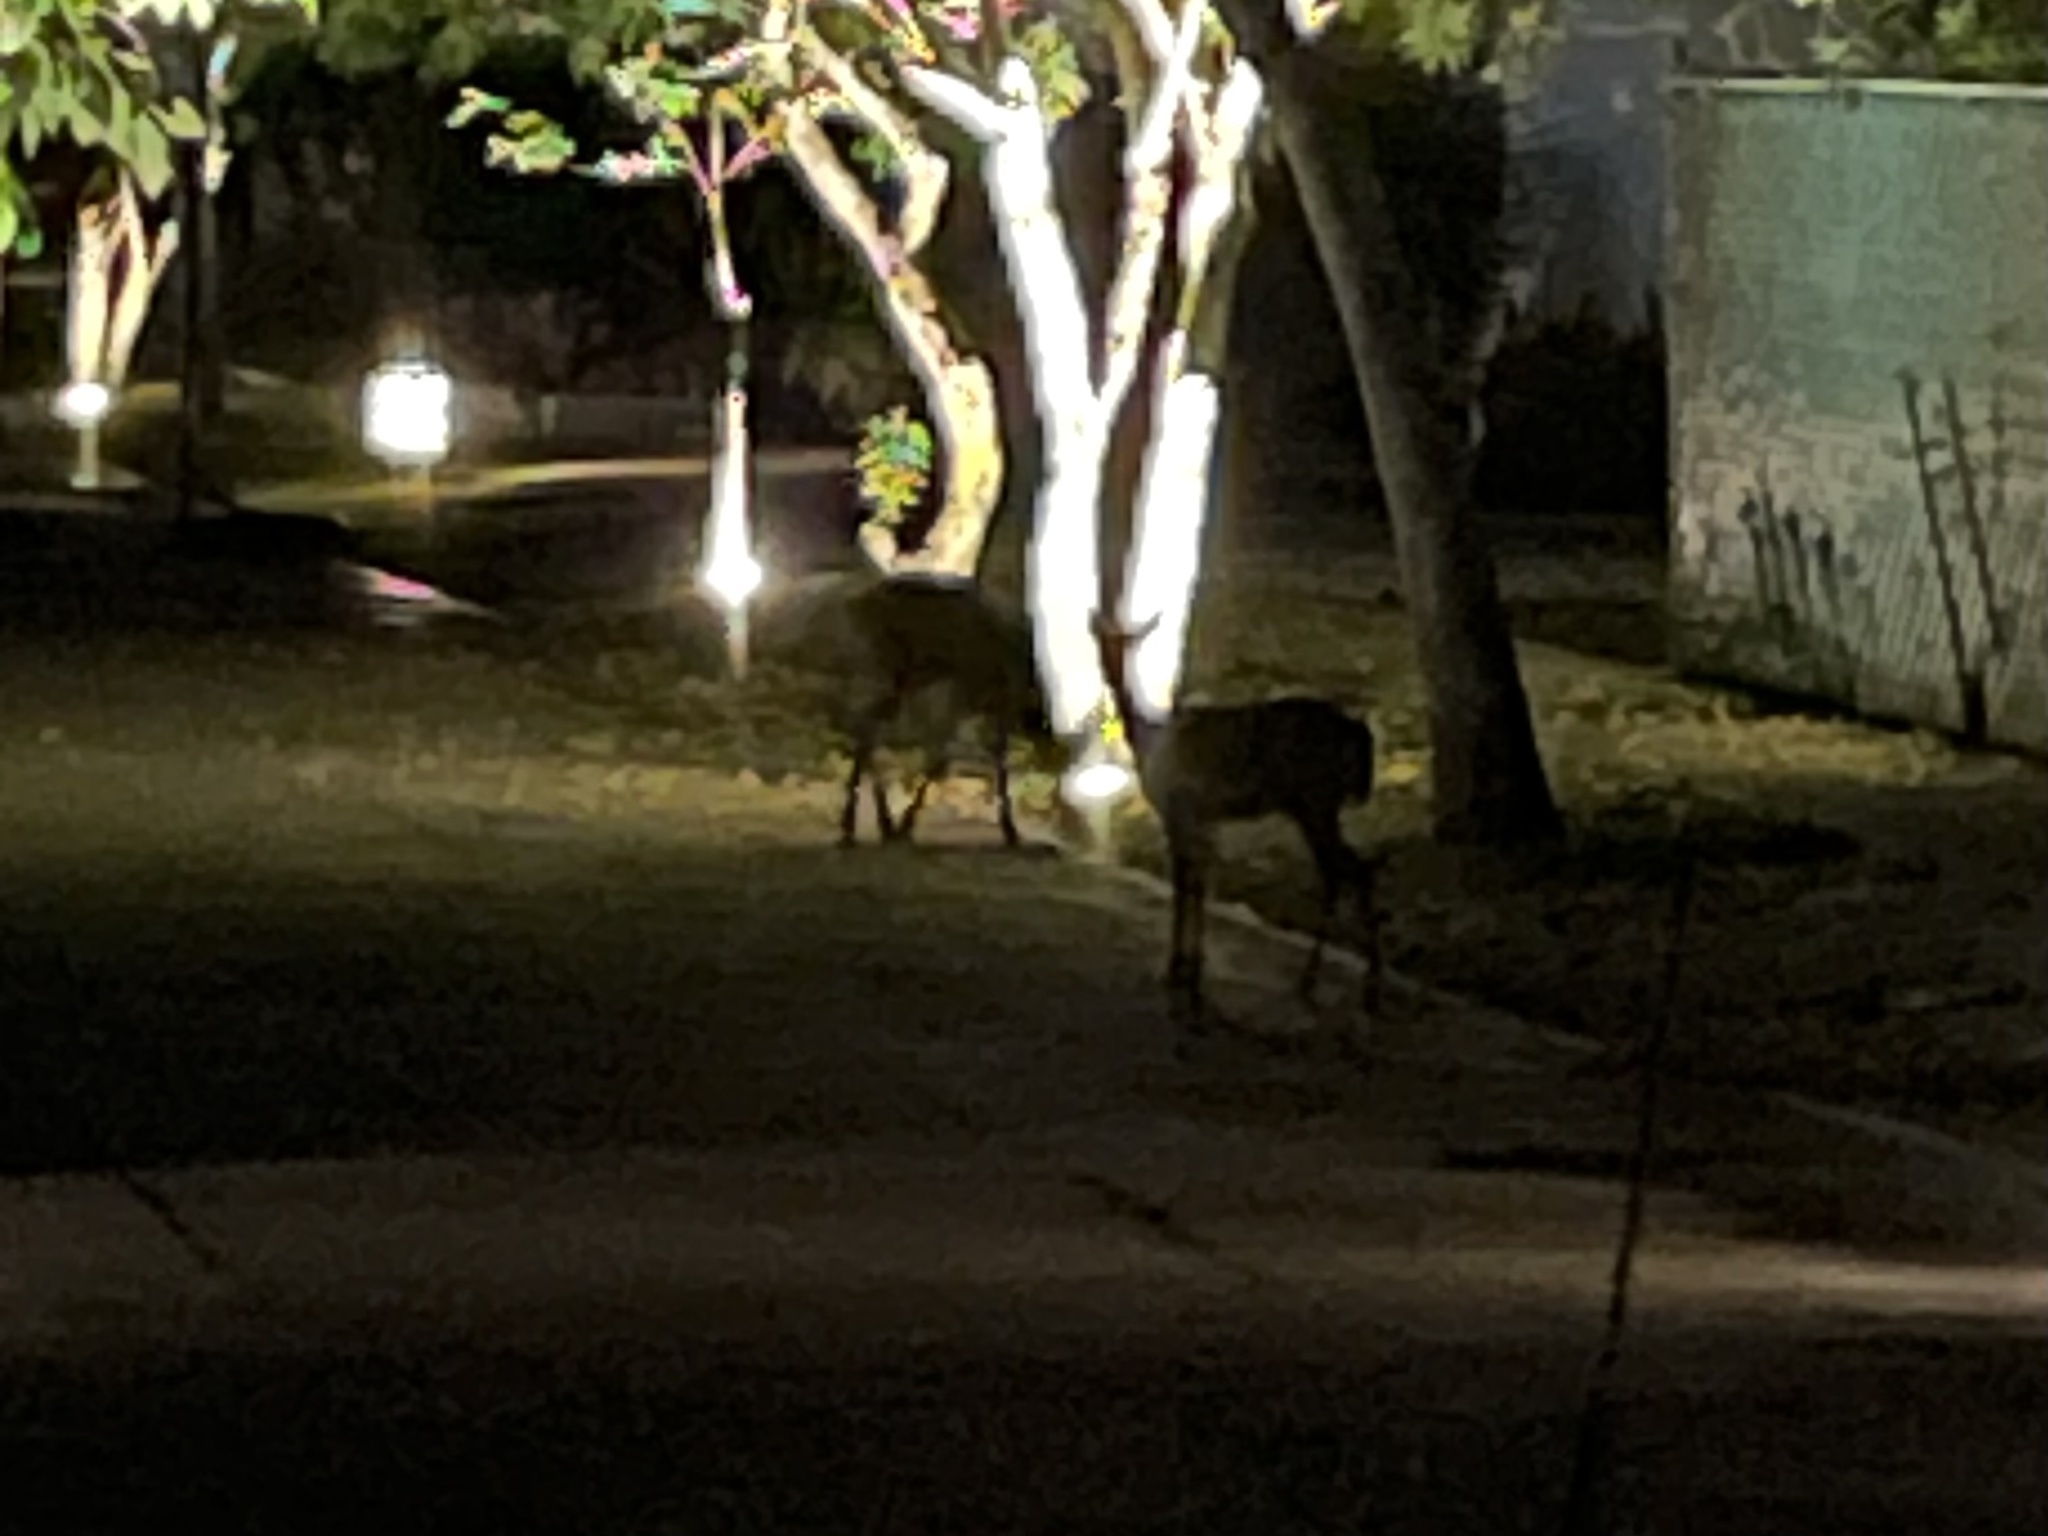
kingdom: Animalia
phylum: Chordata
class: Mammalia
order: Artiodactyla
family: Cervidae
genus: Odocoileus
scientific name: Odocoileus virginianus
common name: White-tailed deer
